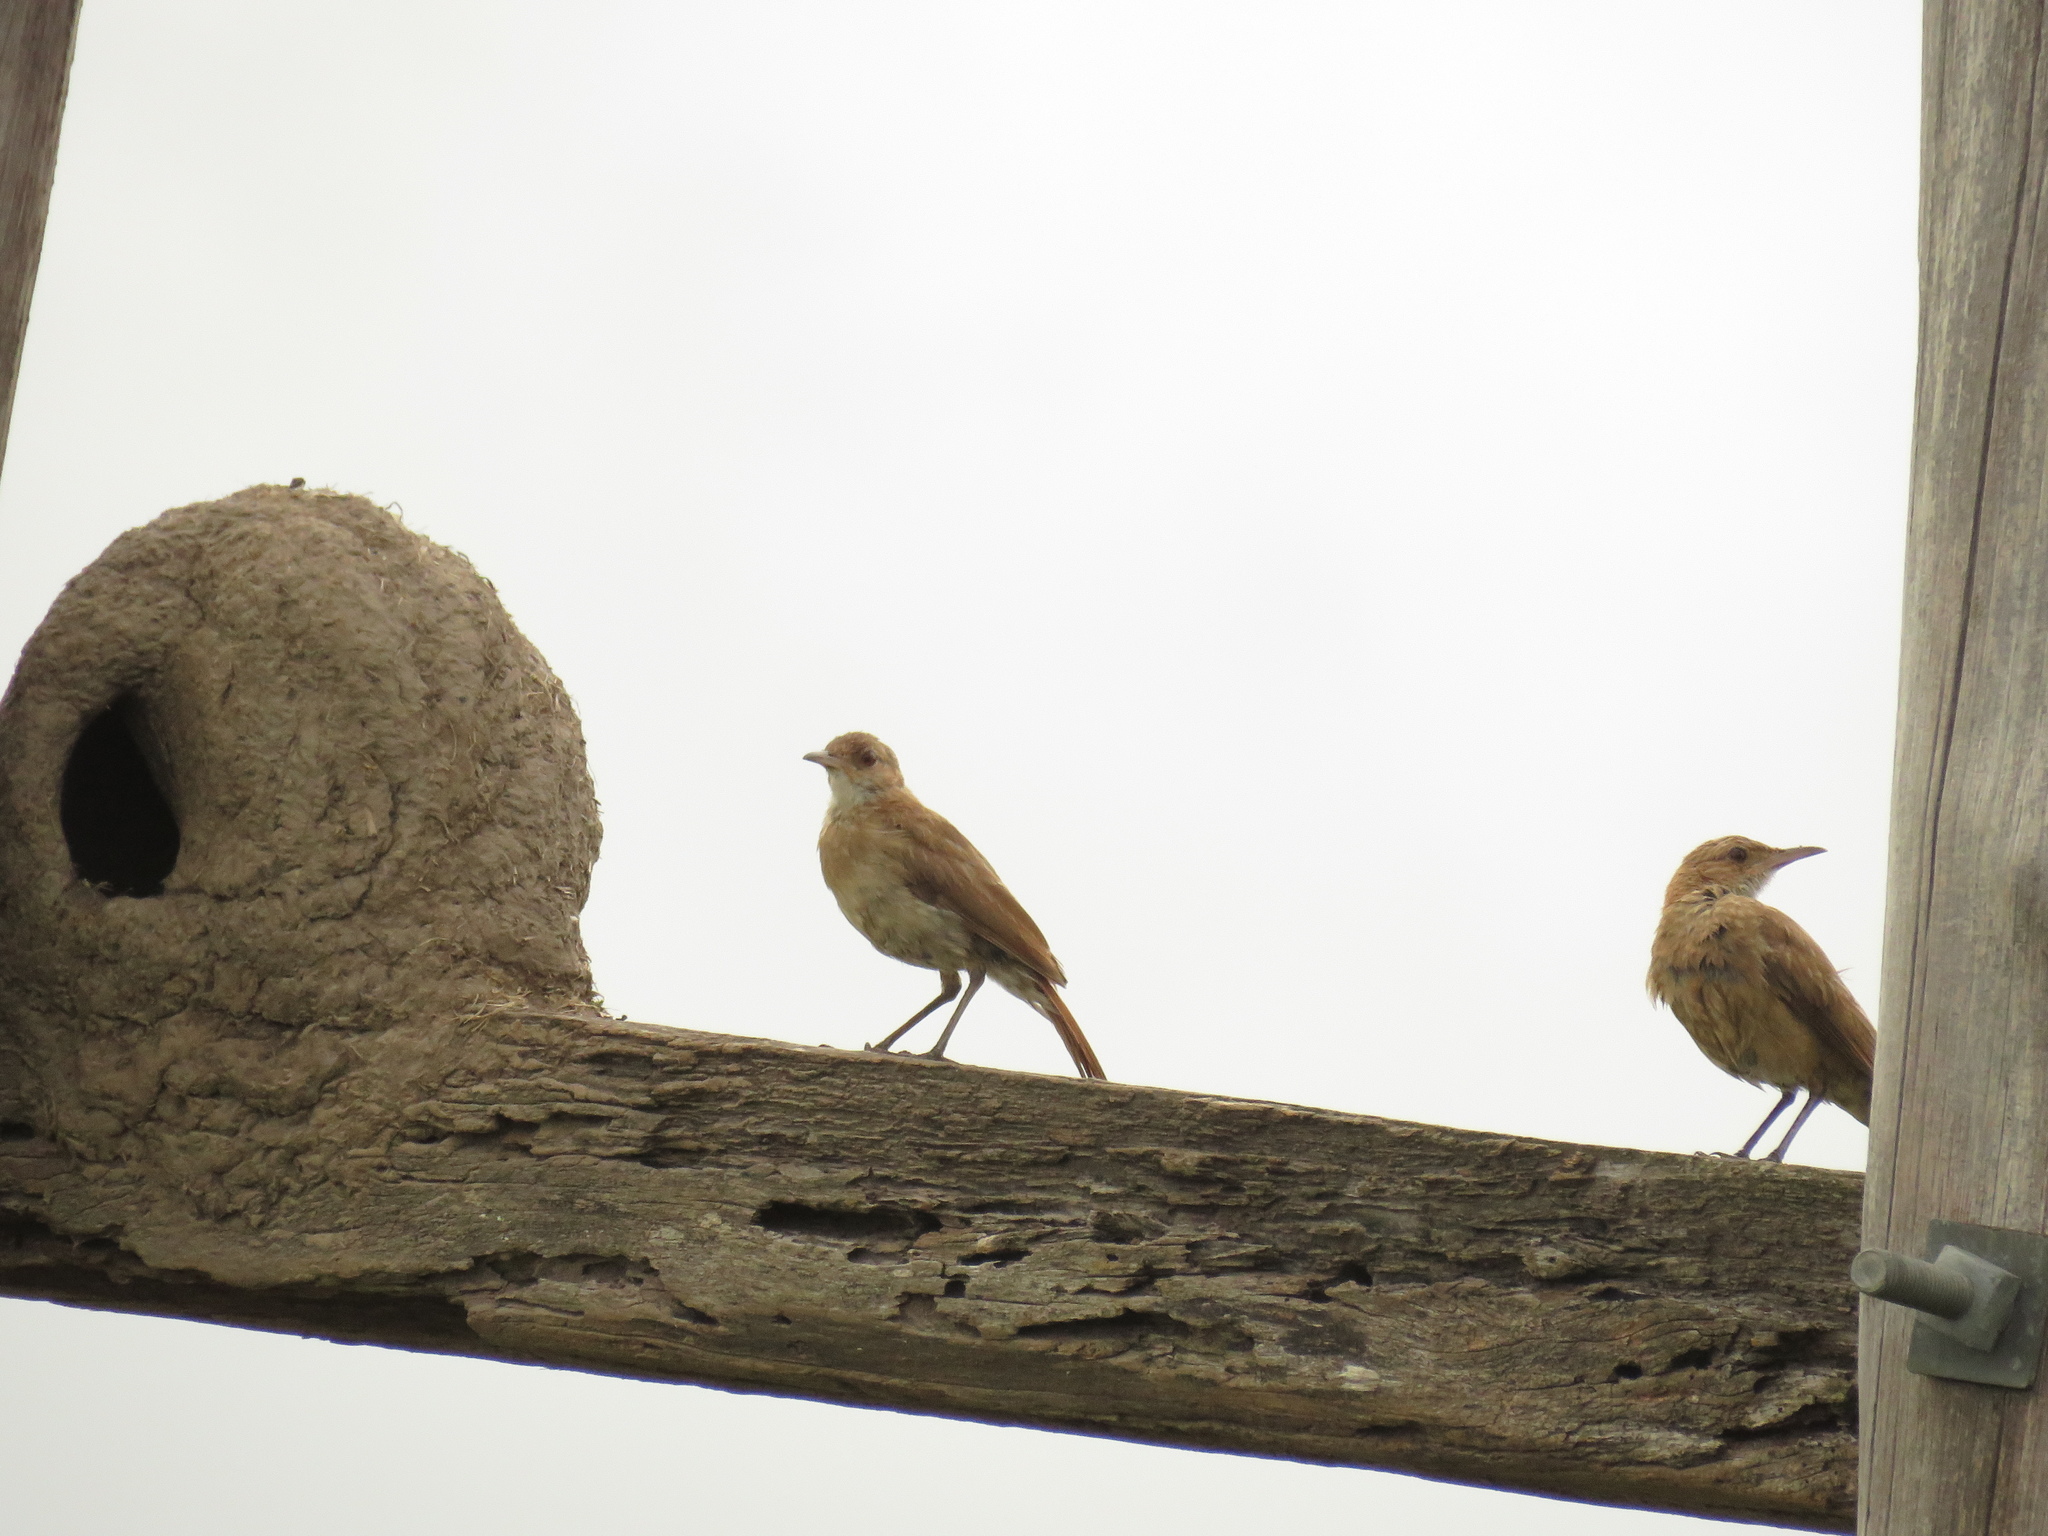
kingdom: Animalia
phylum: Chordata
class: Aves
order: Passeriformes
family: Furnariidae
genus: Furnarius
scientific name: Furnarius rufus
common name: Rufous hornero
